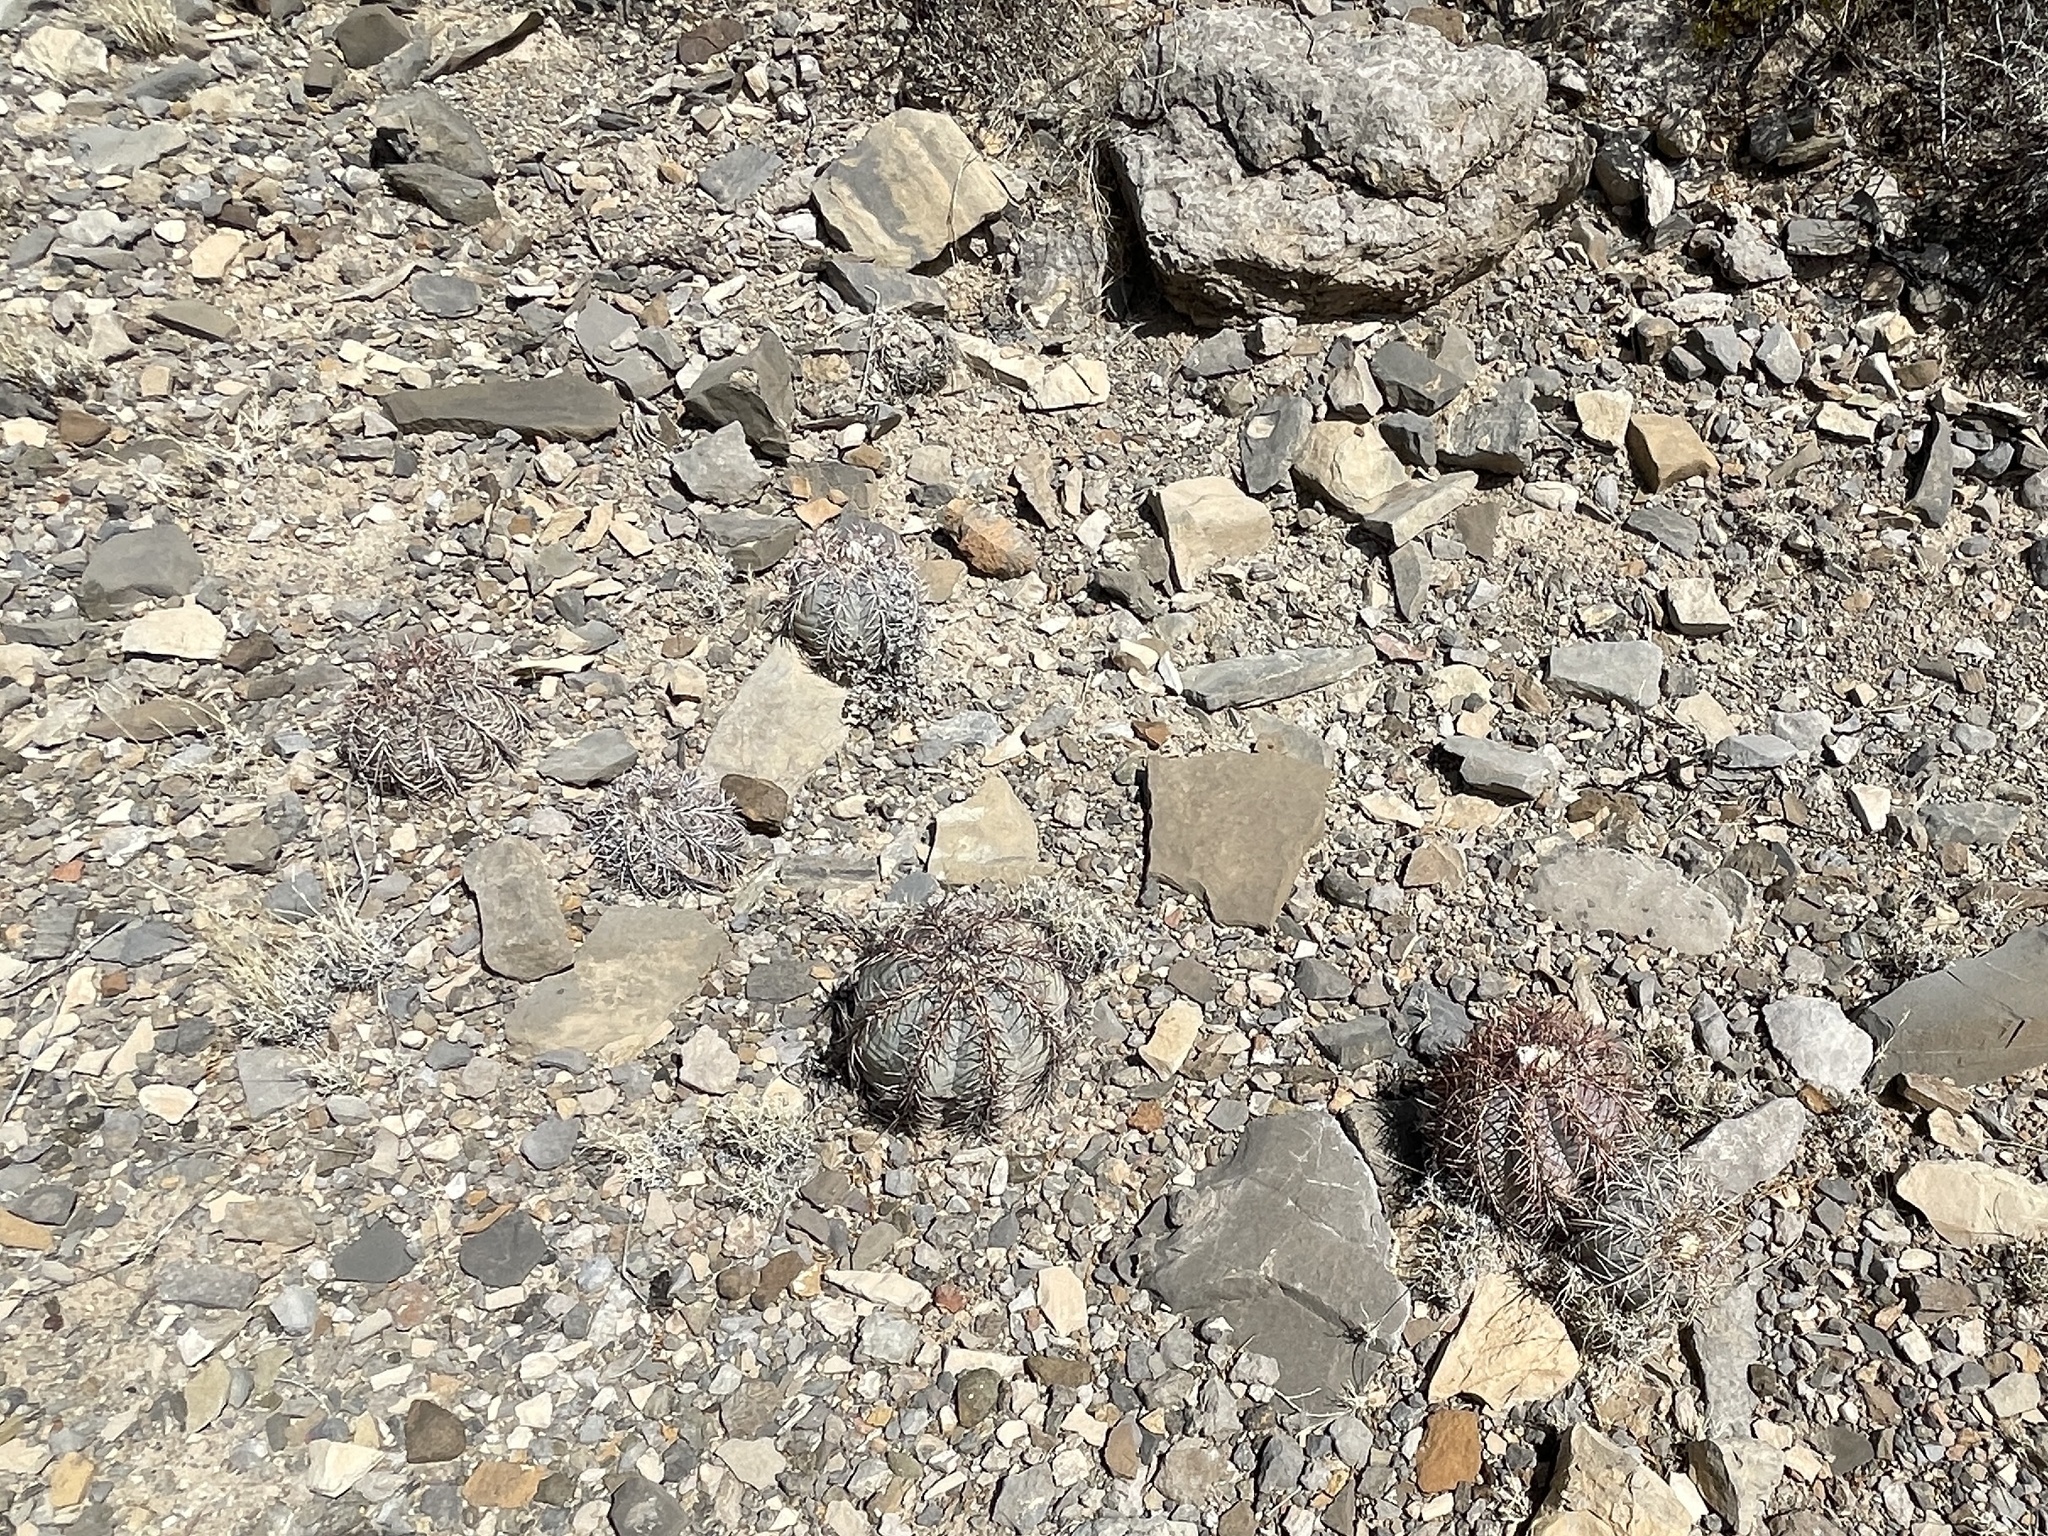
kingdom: Plantae
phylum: Tracheophyta
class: Magnoliopsida
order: Caryophyllales
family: Cactaceae
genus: Echinocactus
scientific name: Echinocactus horizonthalonius
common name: Devilshead
